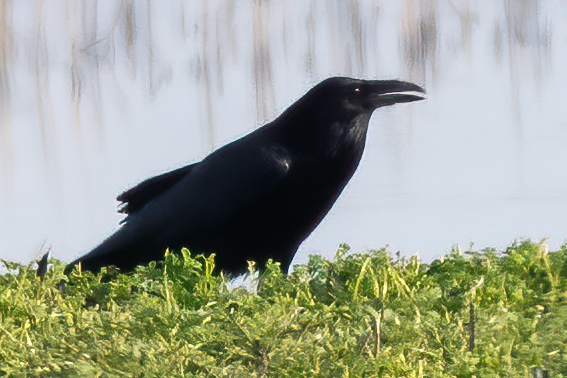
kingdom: Animalia
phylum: Chordata
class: Aves
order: Passeriformes
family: Corvidae
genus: Corvus
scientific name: Corvus corax
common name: Common raven
